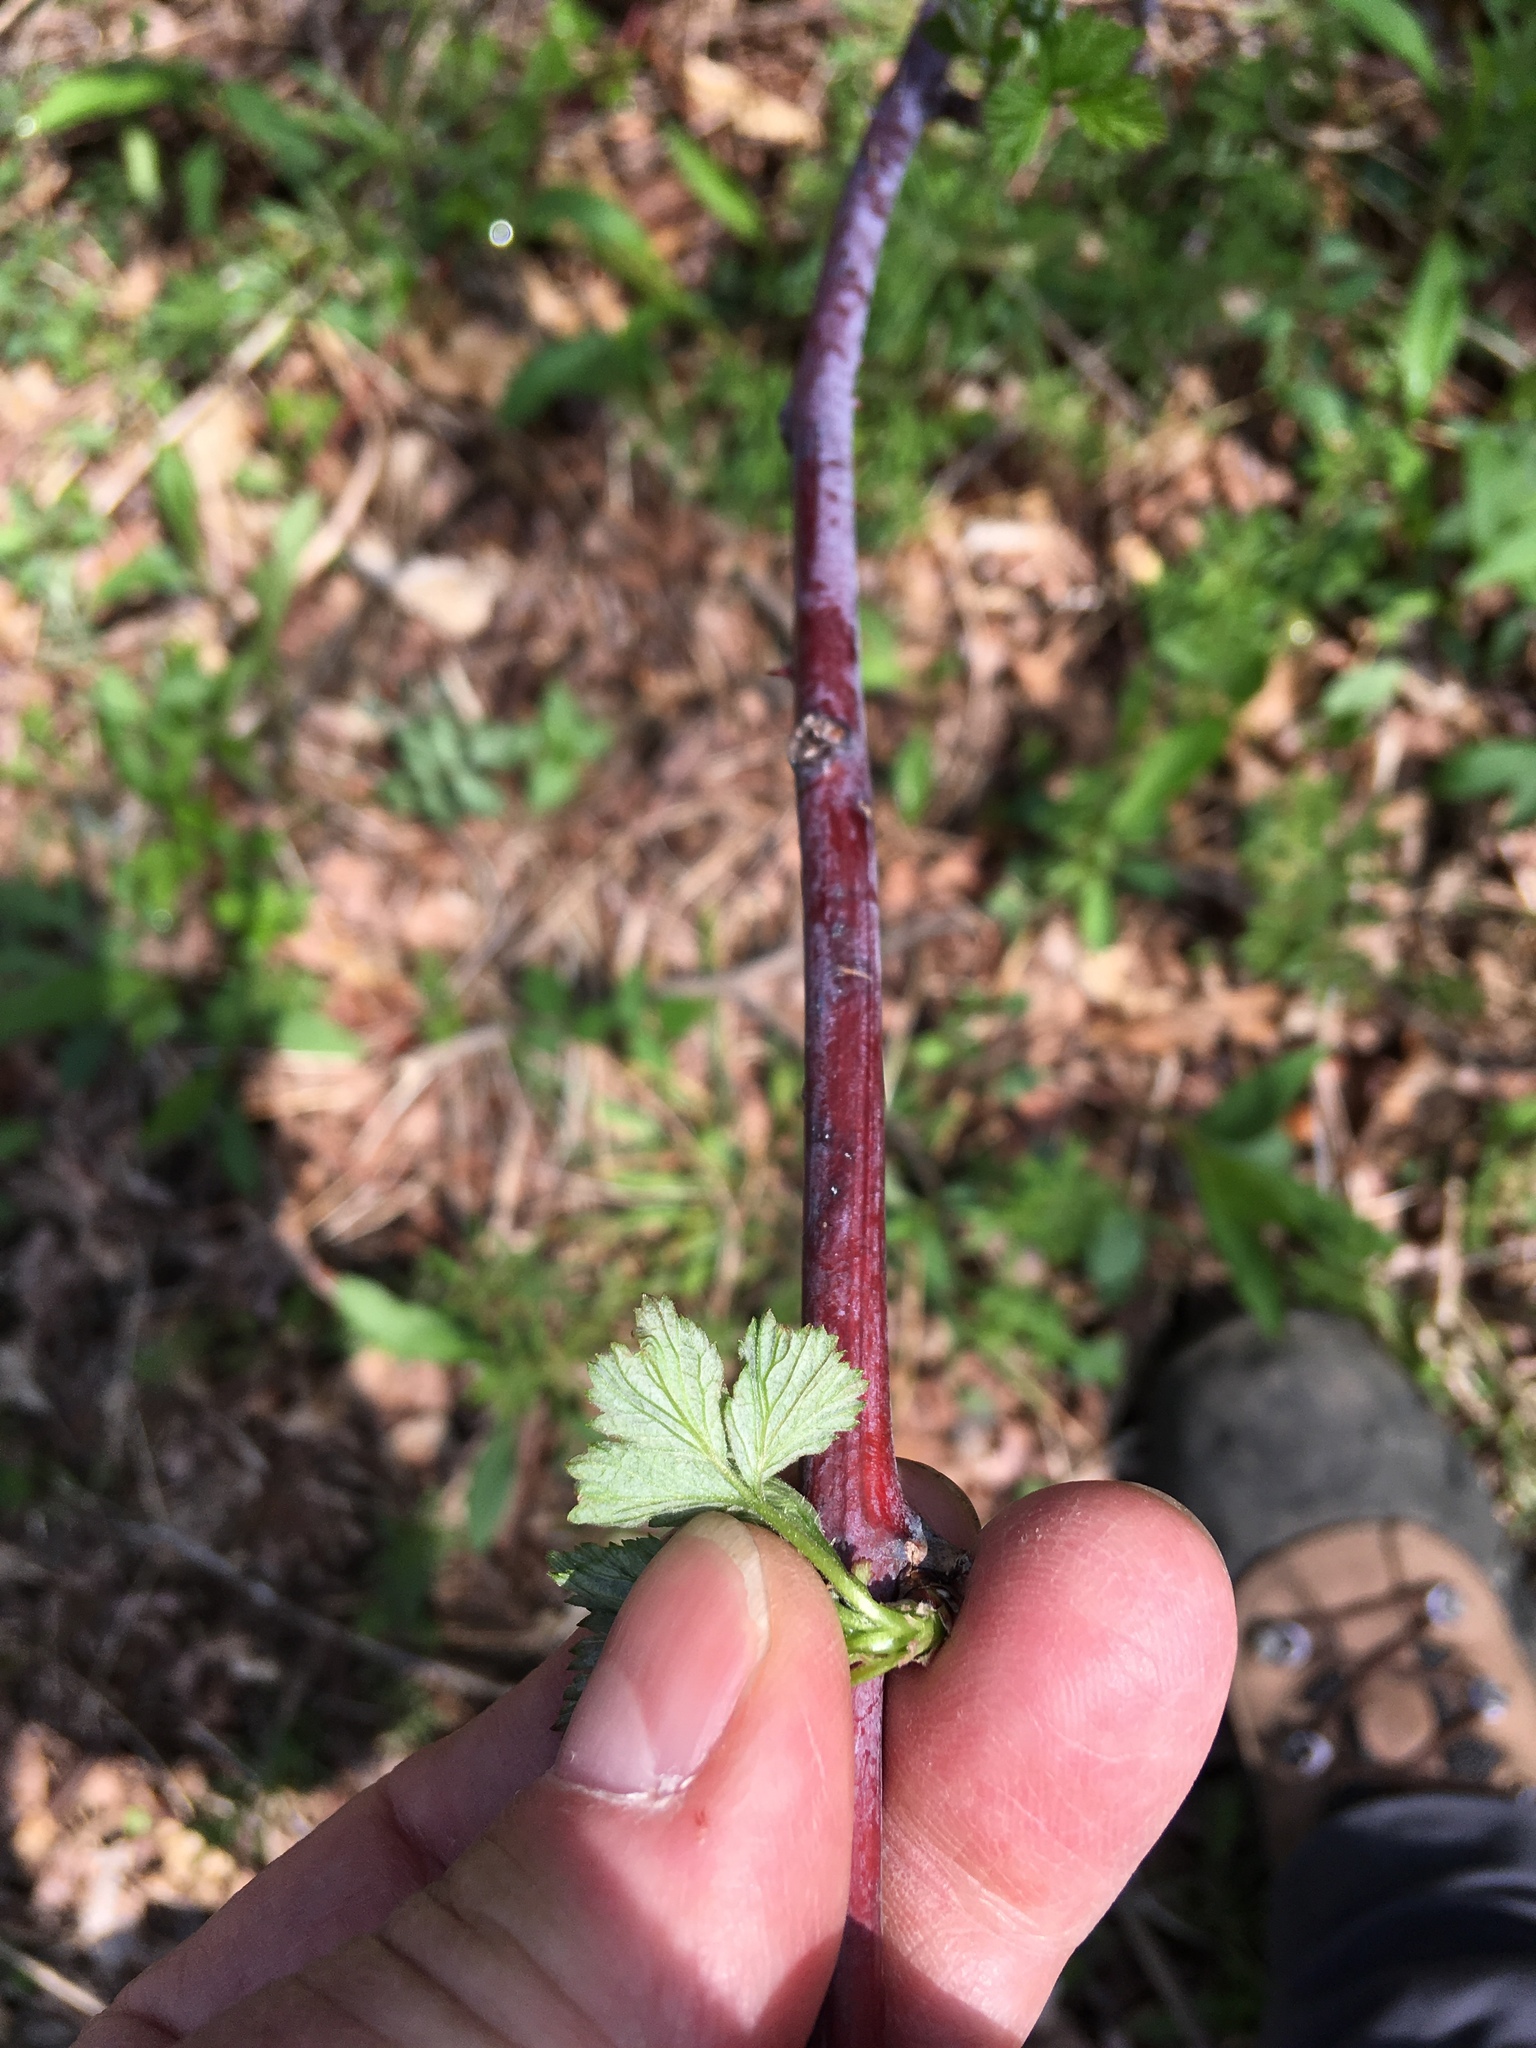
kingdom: Plantae
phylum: Tracheophyta
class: Magnoliopsida
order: Rosales
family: Rosaceae
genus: Rubus
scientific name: Rubus occidentalis
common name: Black raspberry
